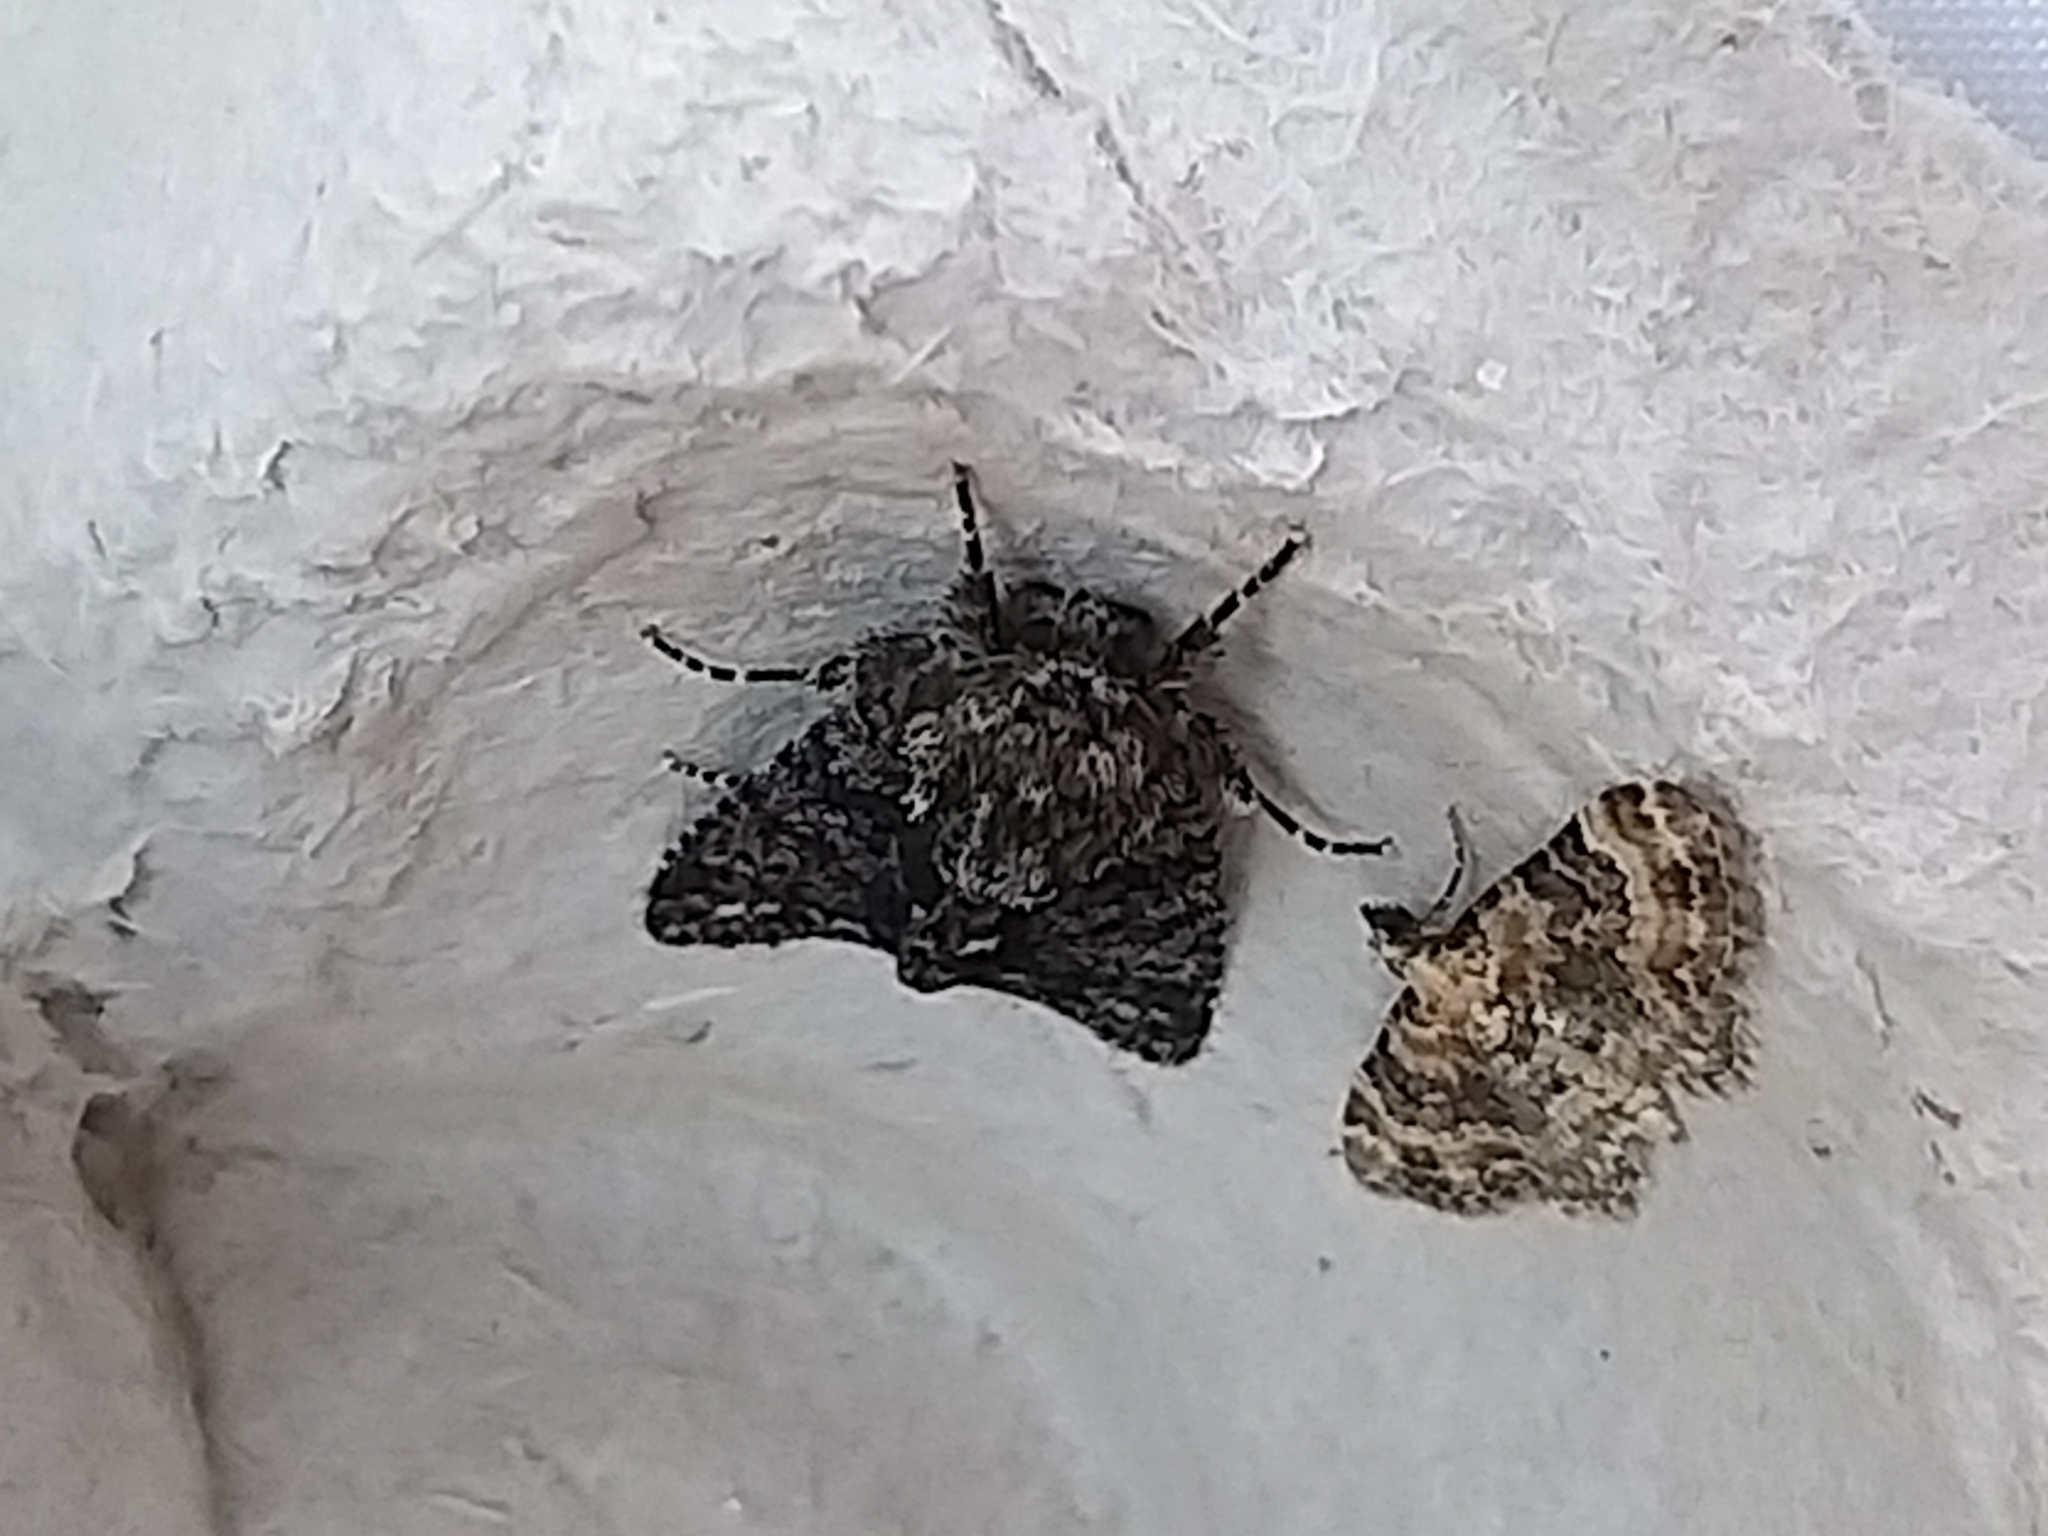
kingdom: Animalia
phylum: Arthropoda
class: Insecta
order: Lepidoptera
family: Geometridae
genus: Eupithecia
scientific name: Eupithecia pulchellata
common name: Foxglove pug
